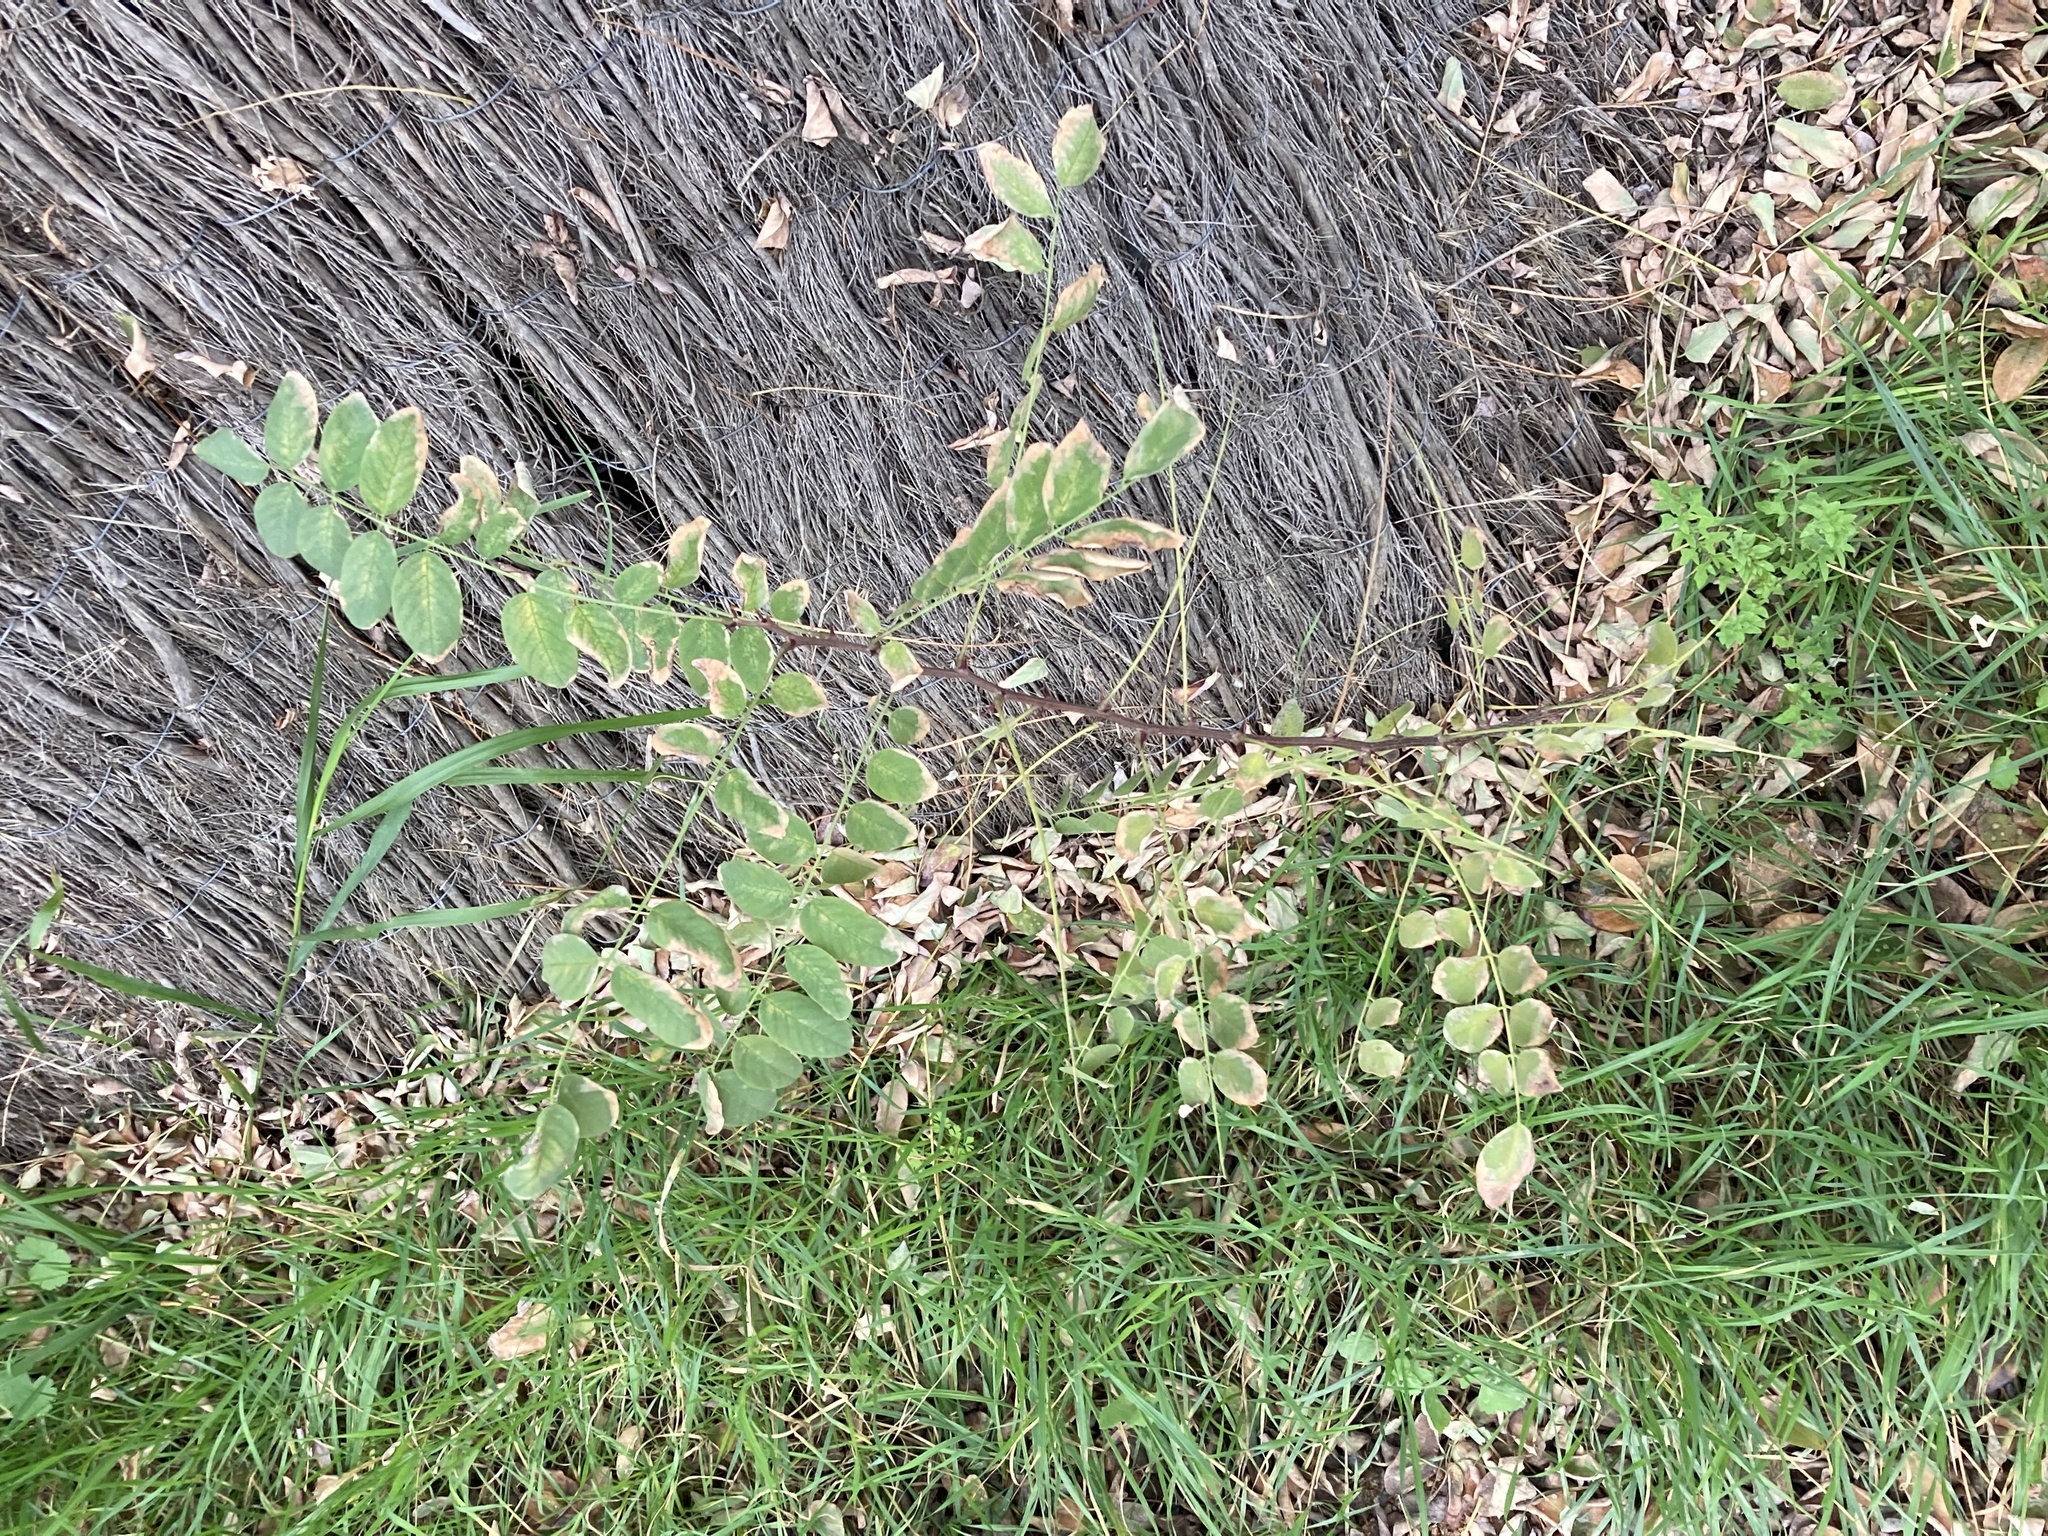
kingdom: Plantae
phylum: Tracheophyta
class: Magnoliopsida
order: Fabales
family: Fabaceae
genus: Robinia
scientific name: Robinia pseudoacacia
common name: Black locust
